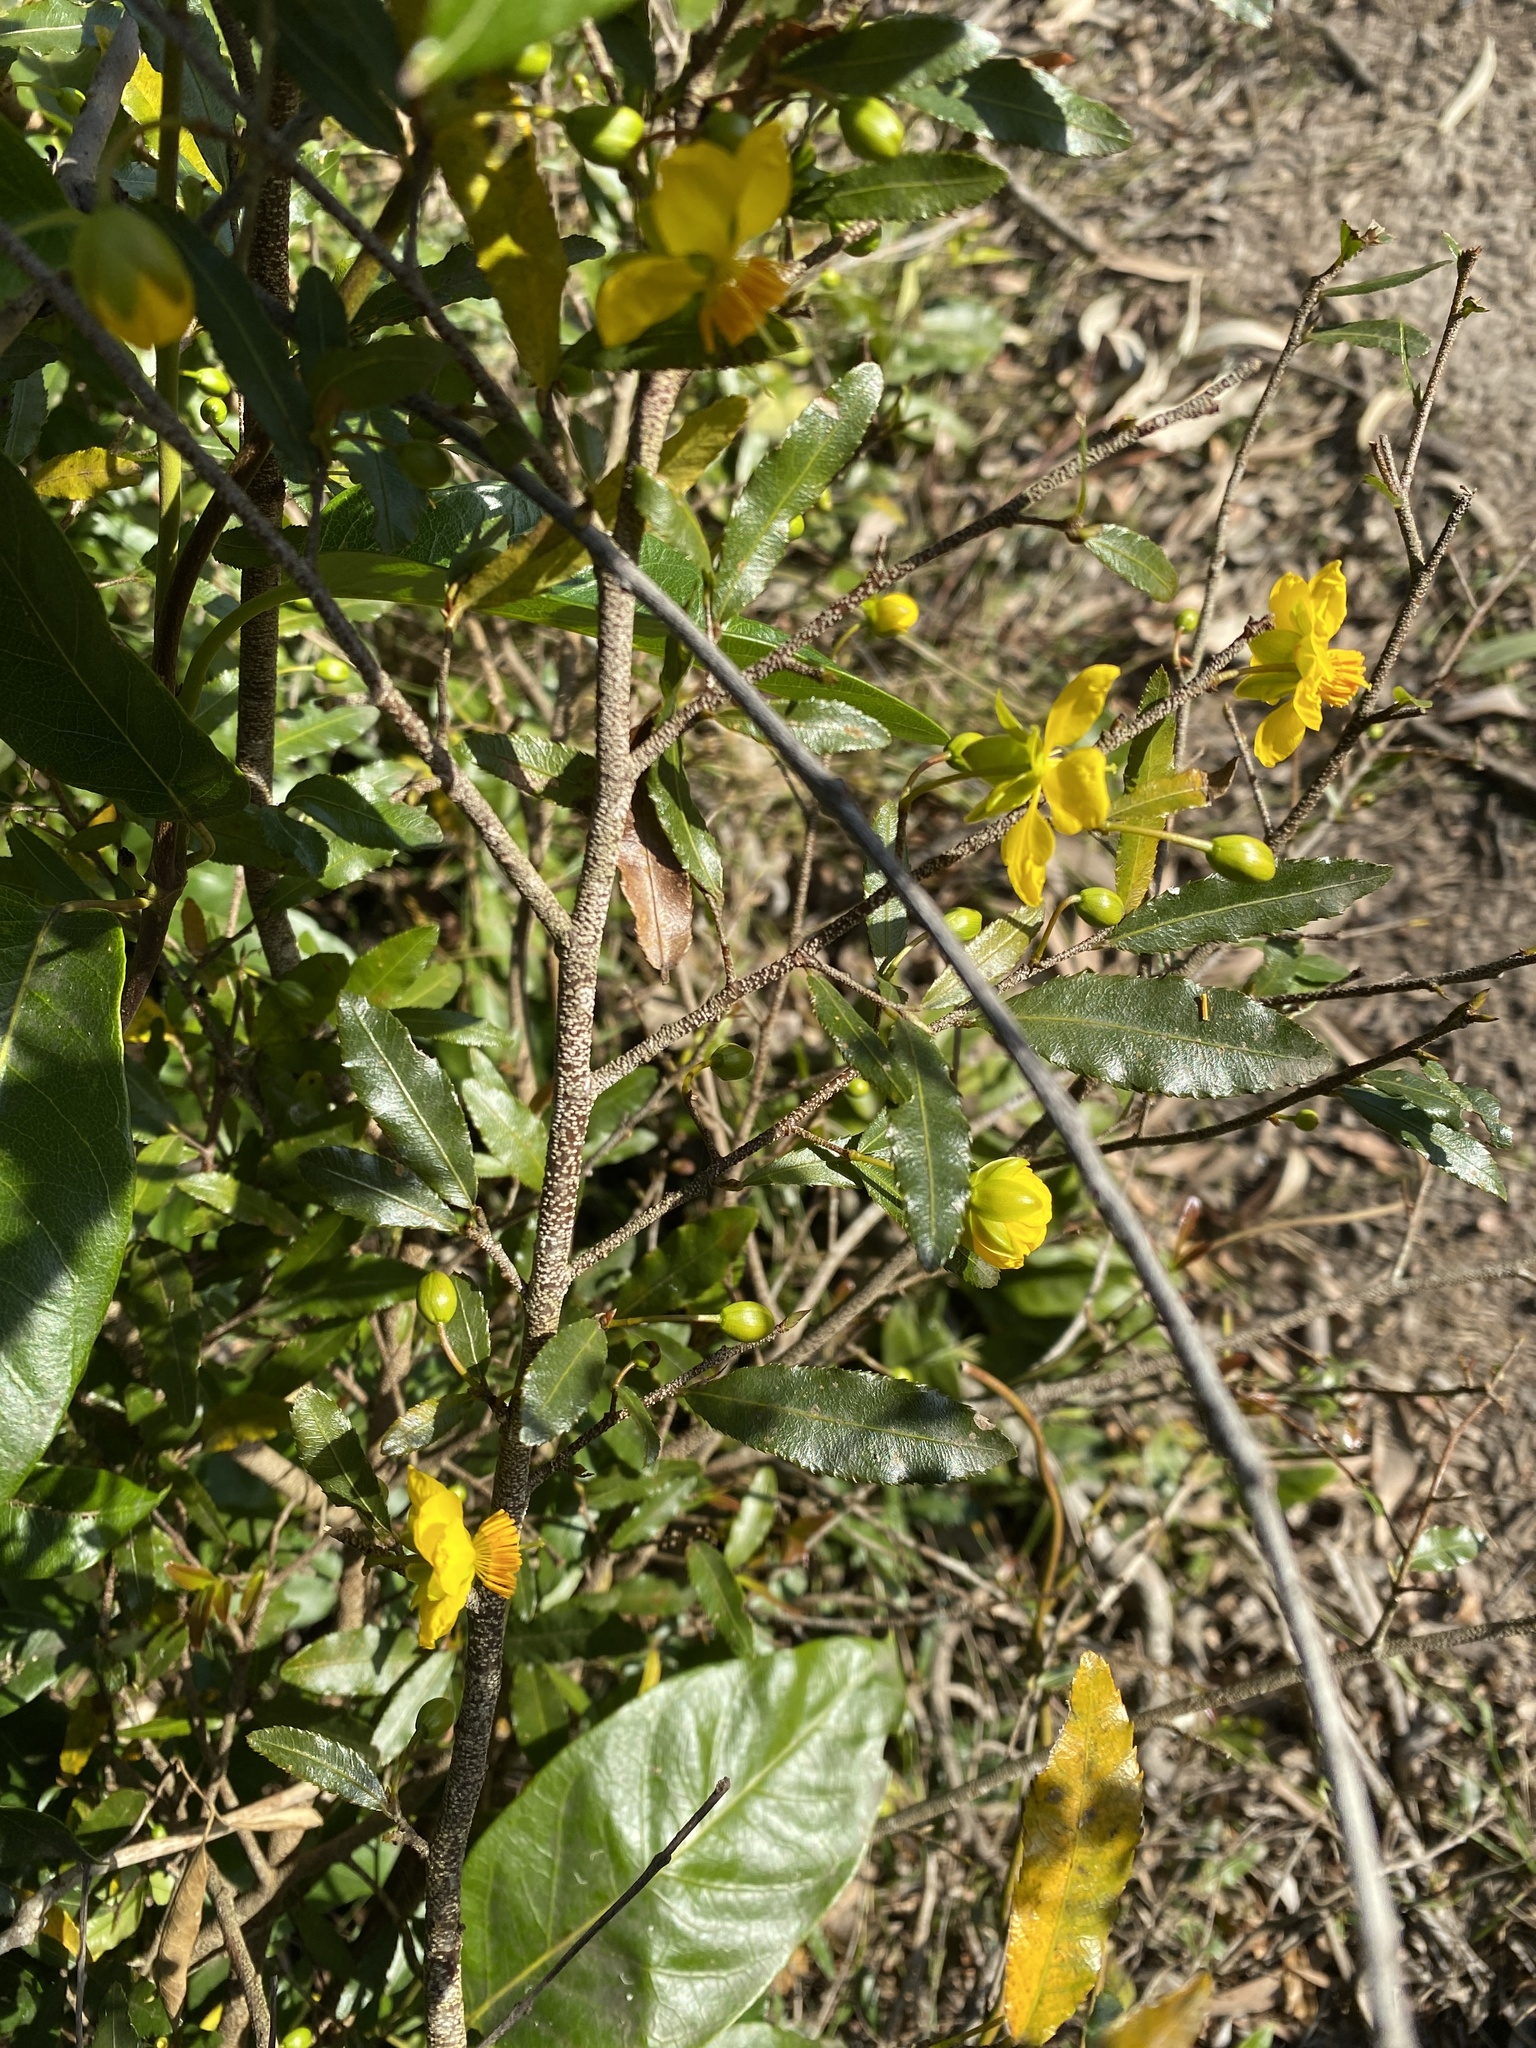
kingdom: Plantae
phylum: Tracheophyta
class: Magnoliopsida
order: Malpighiales
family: Ochnaceae
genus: Ochna
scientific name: Ochna serrulata
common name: Mickey mouse plant
